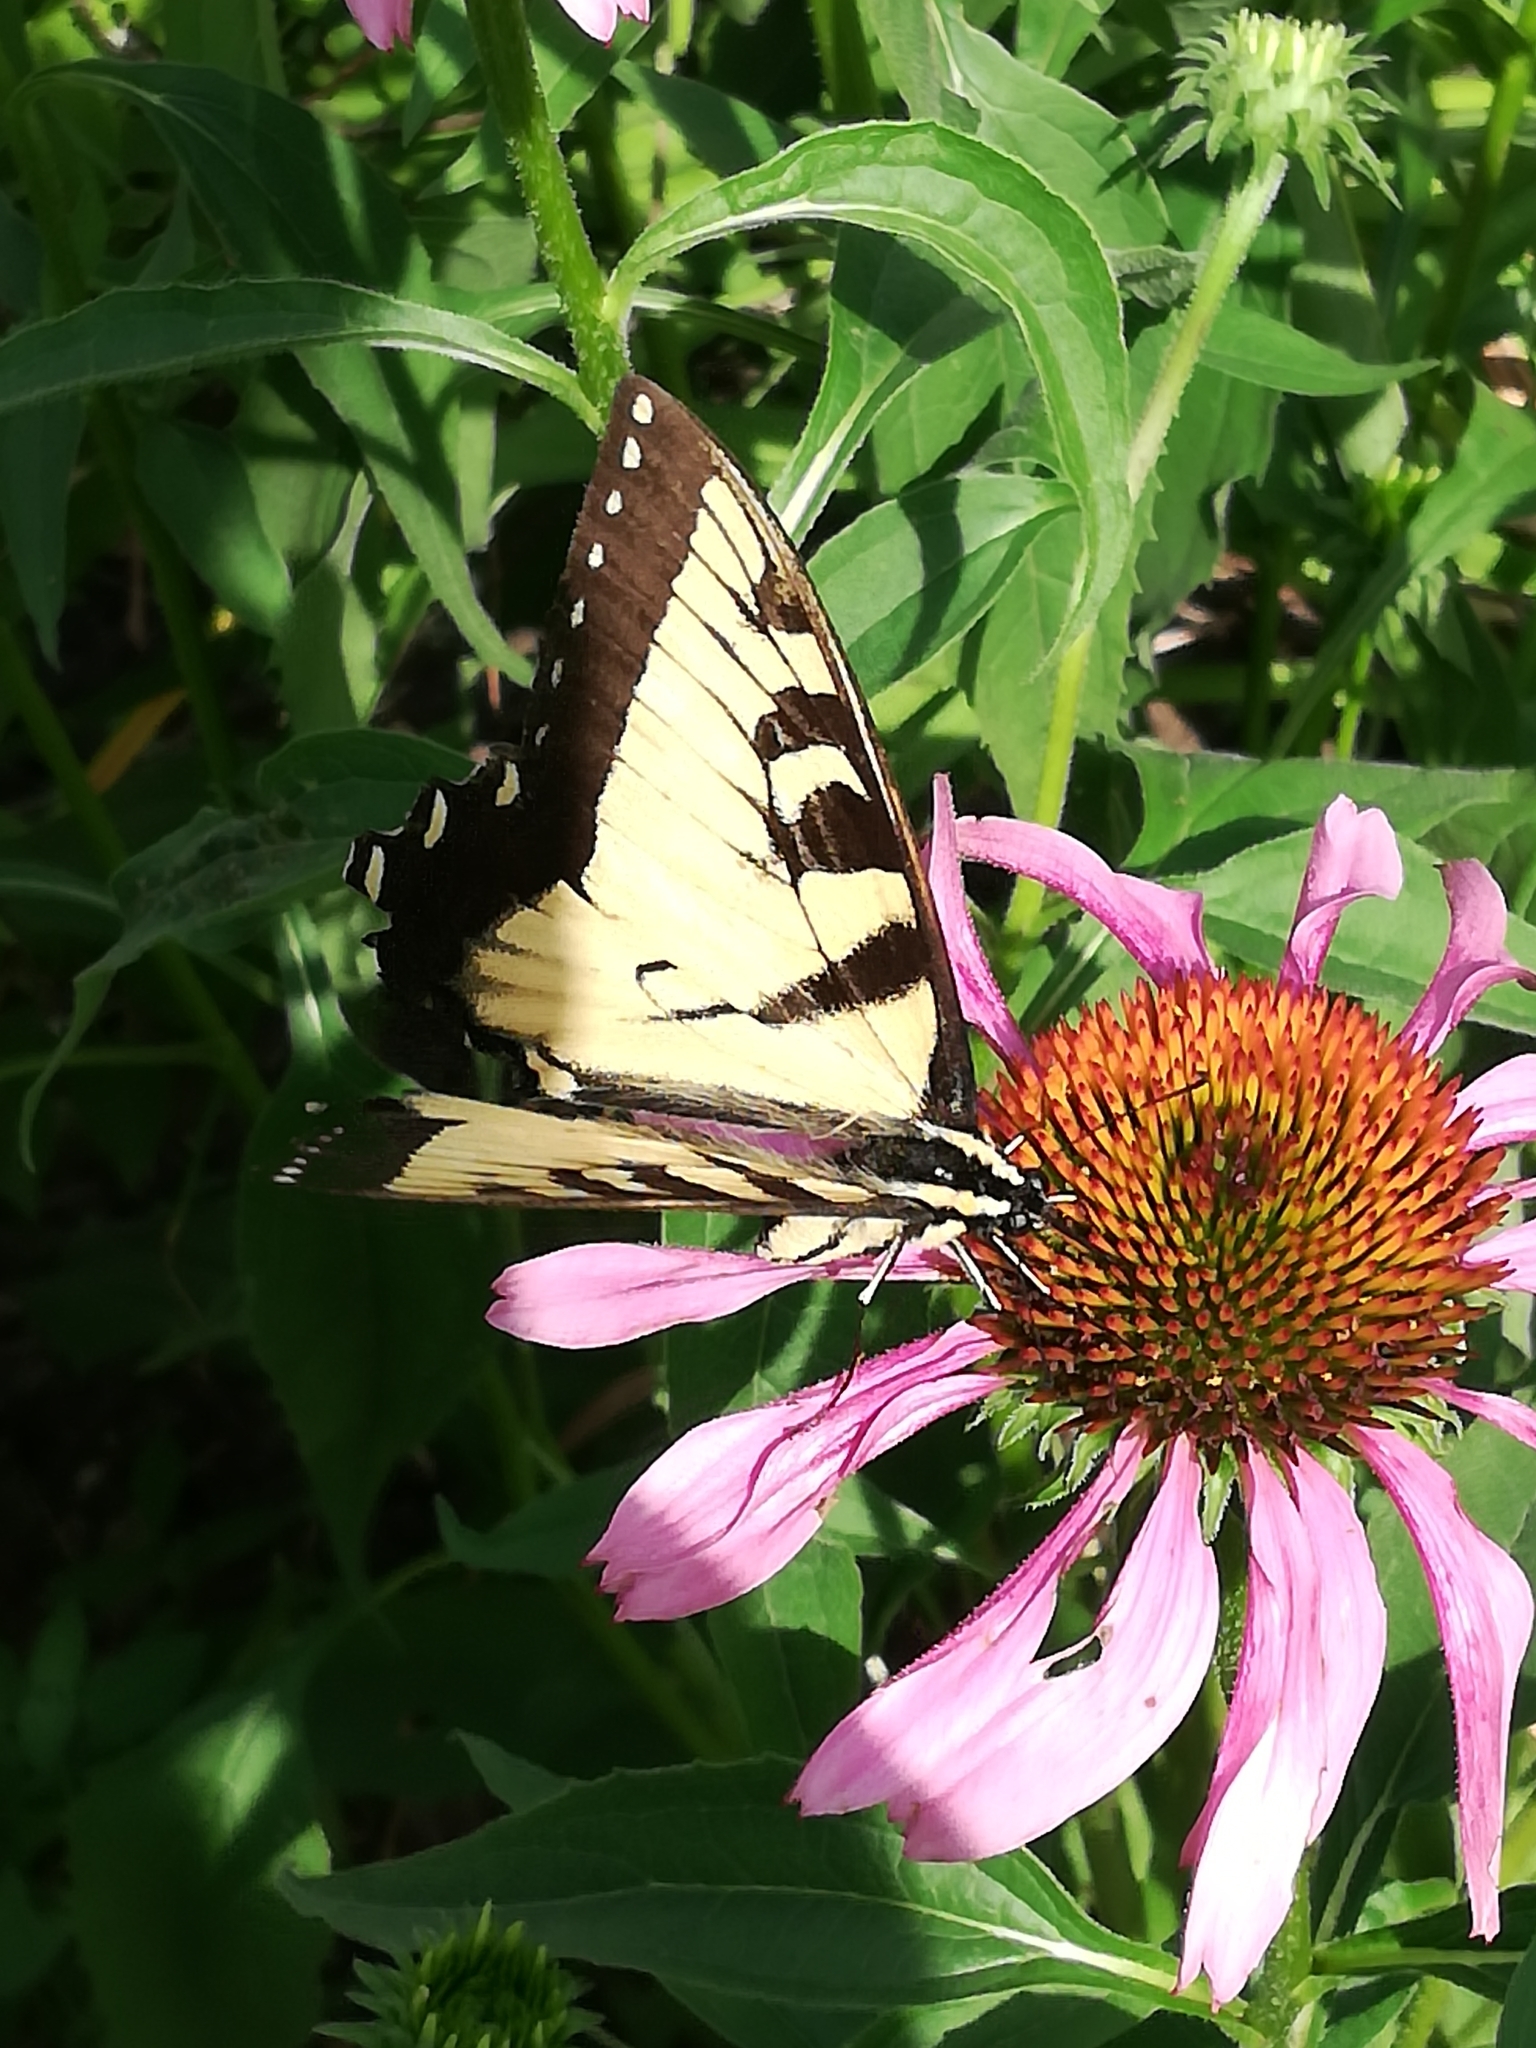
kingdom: Animalia
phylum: Arthropoda
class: Insecta
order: Lepidoptera
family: Papilionidae
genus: Papilio
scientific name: Papilio glaucus
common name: Tiger swallowtail
